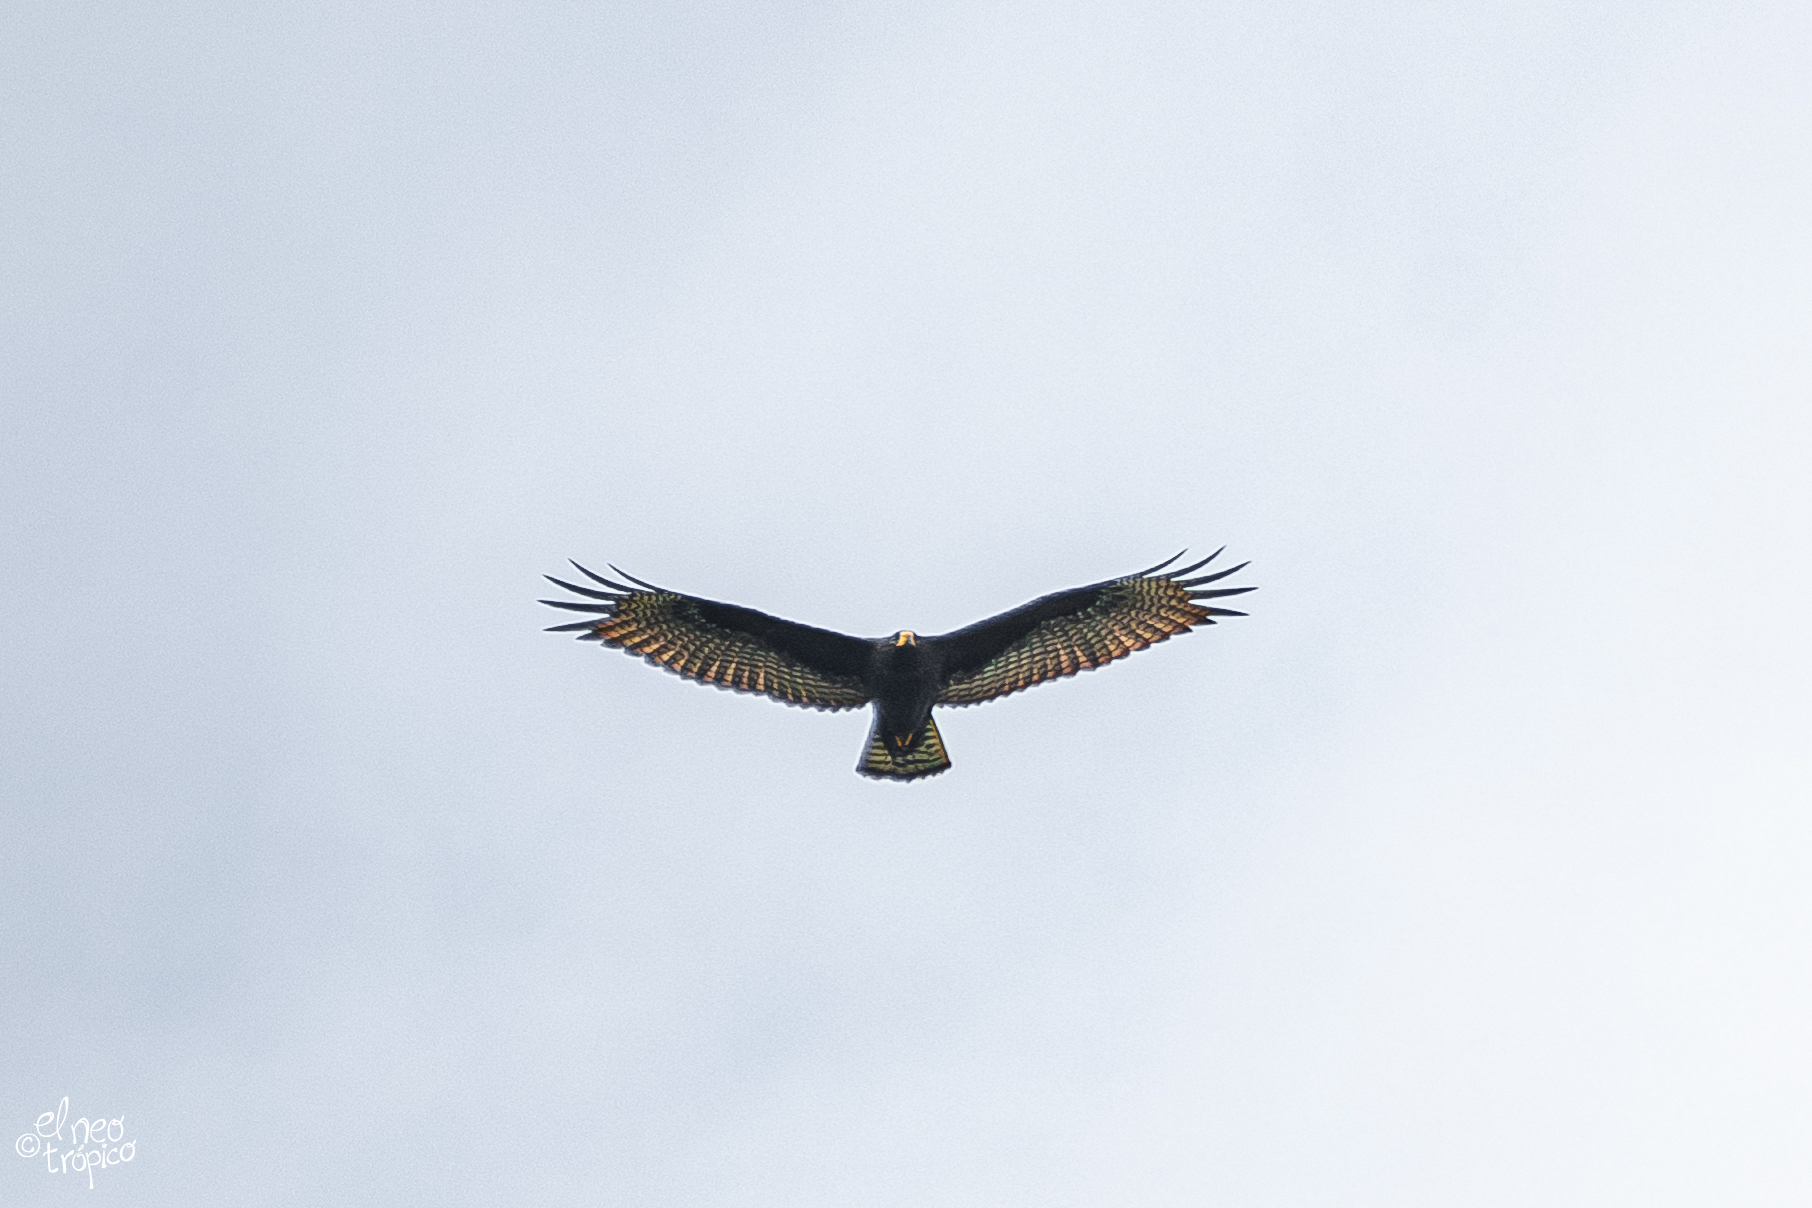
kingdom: Animalia
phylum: Chordata
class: Aves
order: Accipitriformes
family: Accipitridae
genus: Buteo
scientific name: Buteo albonotatus
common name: Zone-tailed hawk
